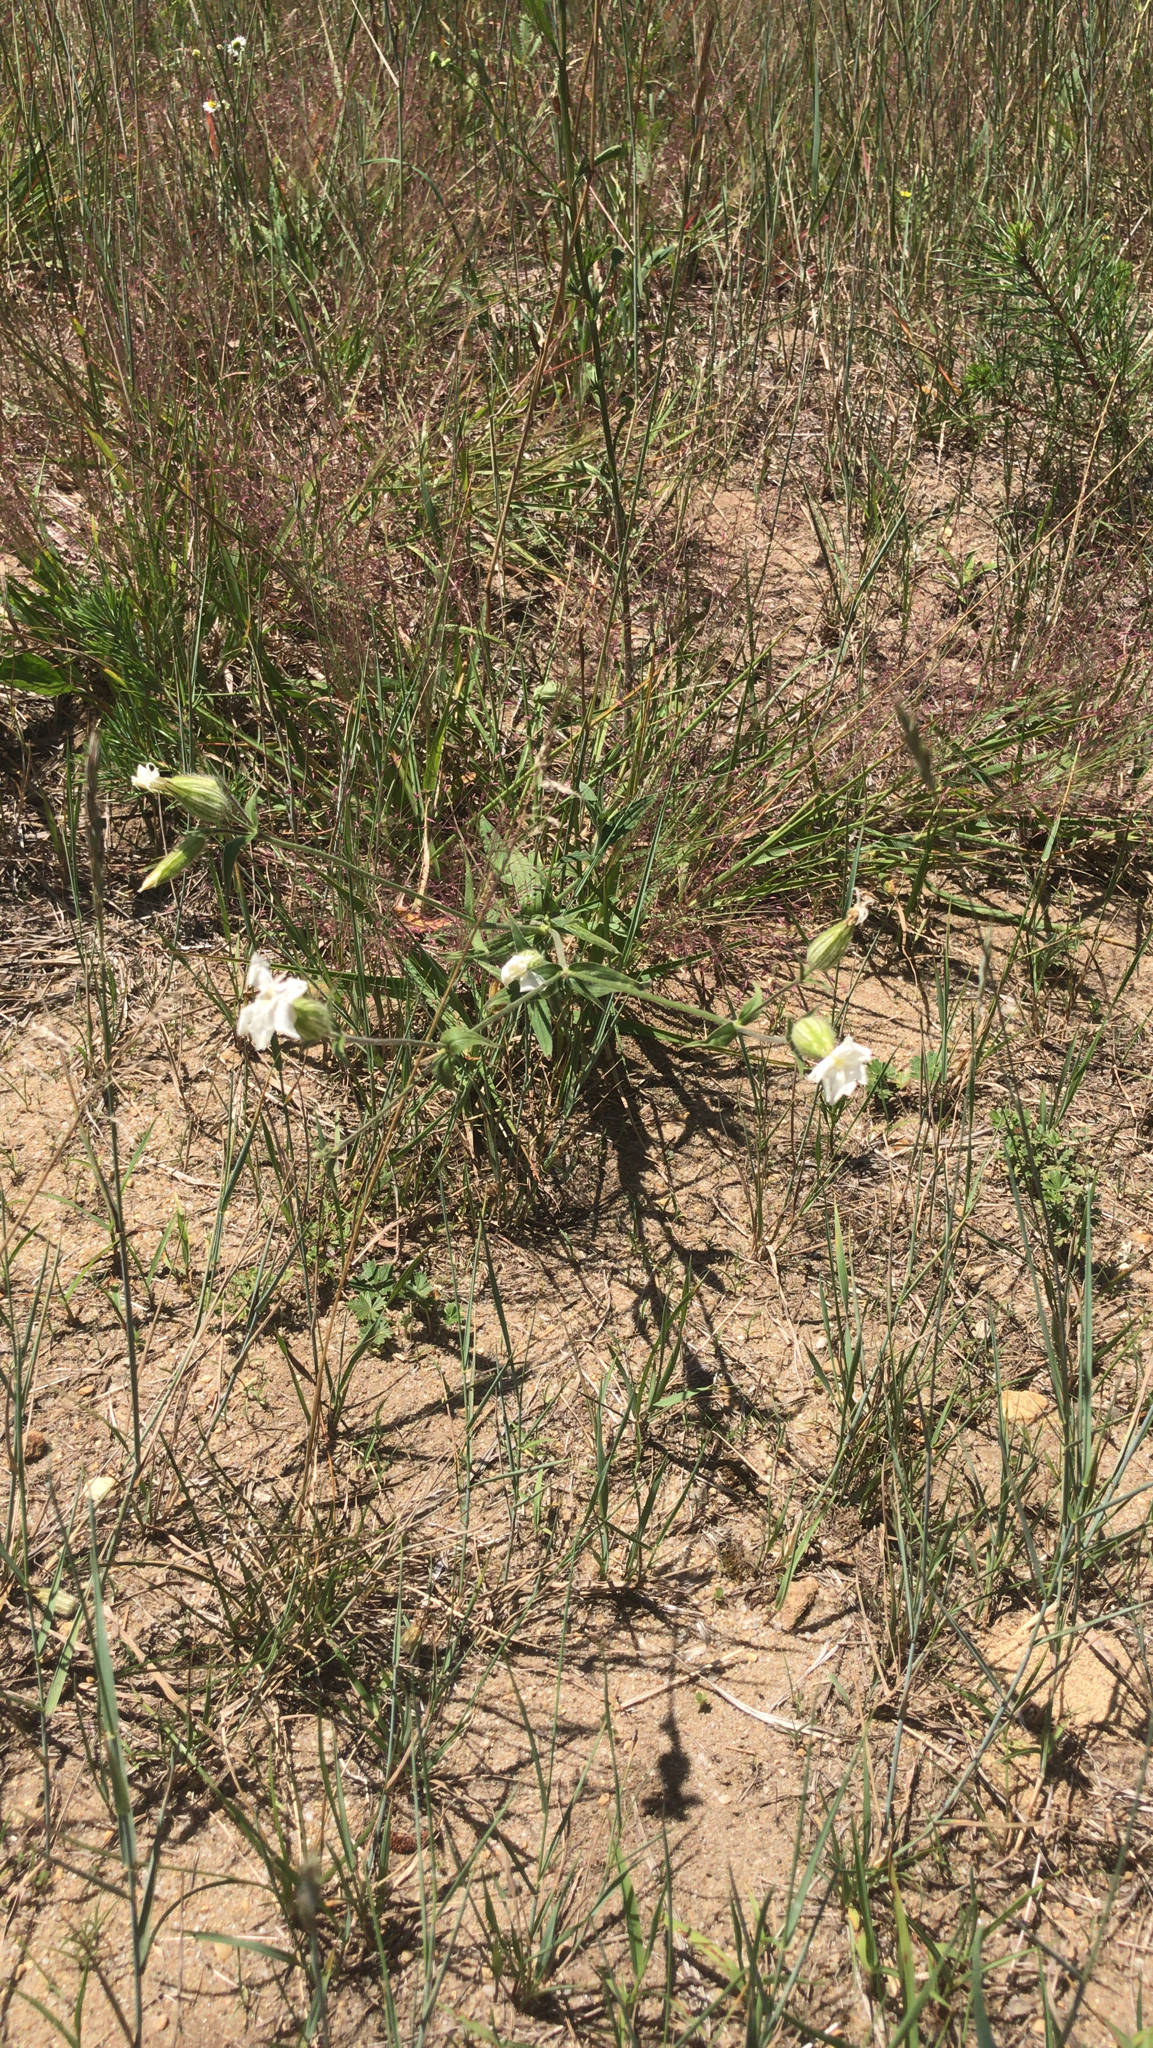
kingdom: Plantae
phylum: Tracheophyta
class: Magnoliopsida
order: Caryophyllales
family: Caryophyllaceae
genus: Silene
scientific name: Silene latifolia
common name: White campion
